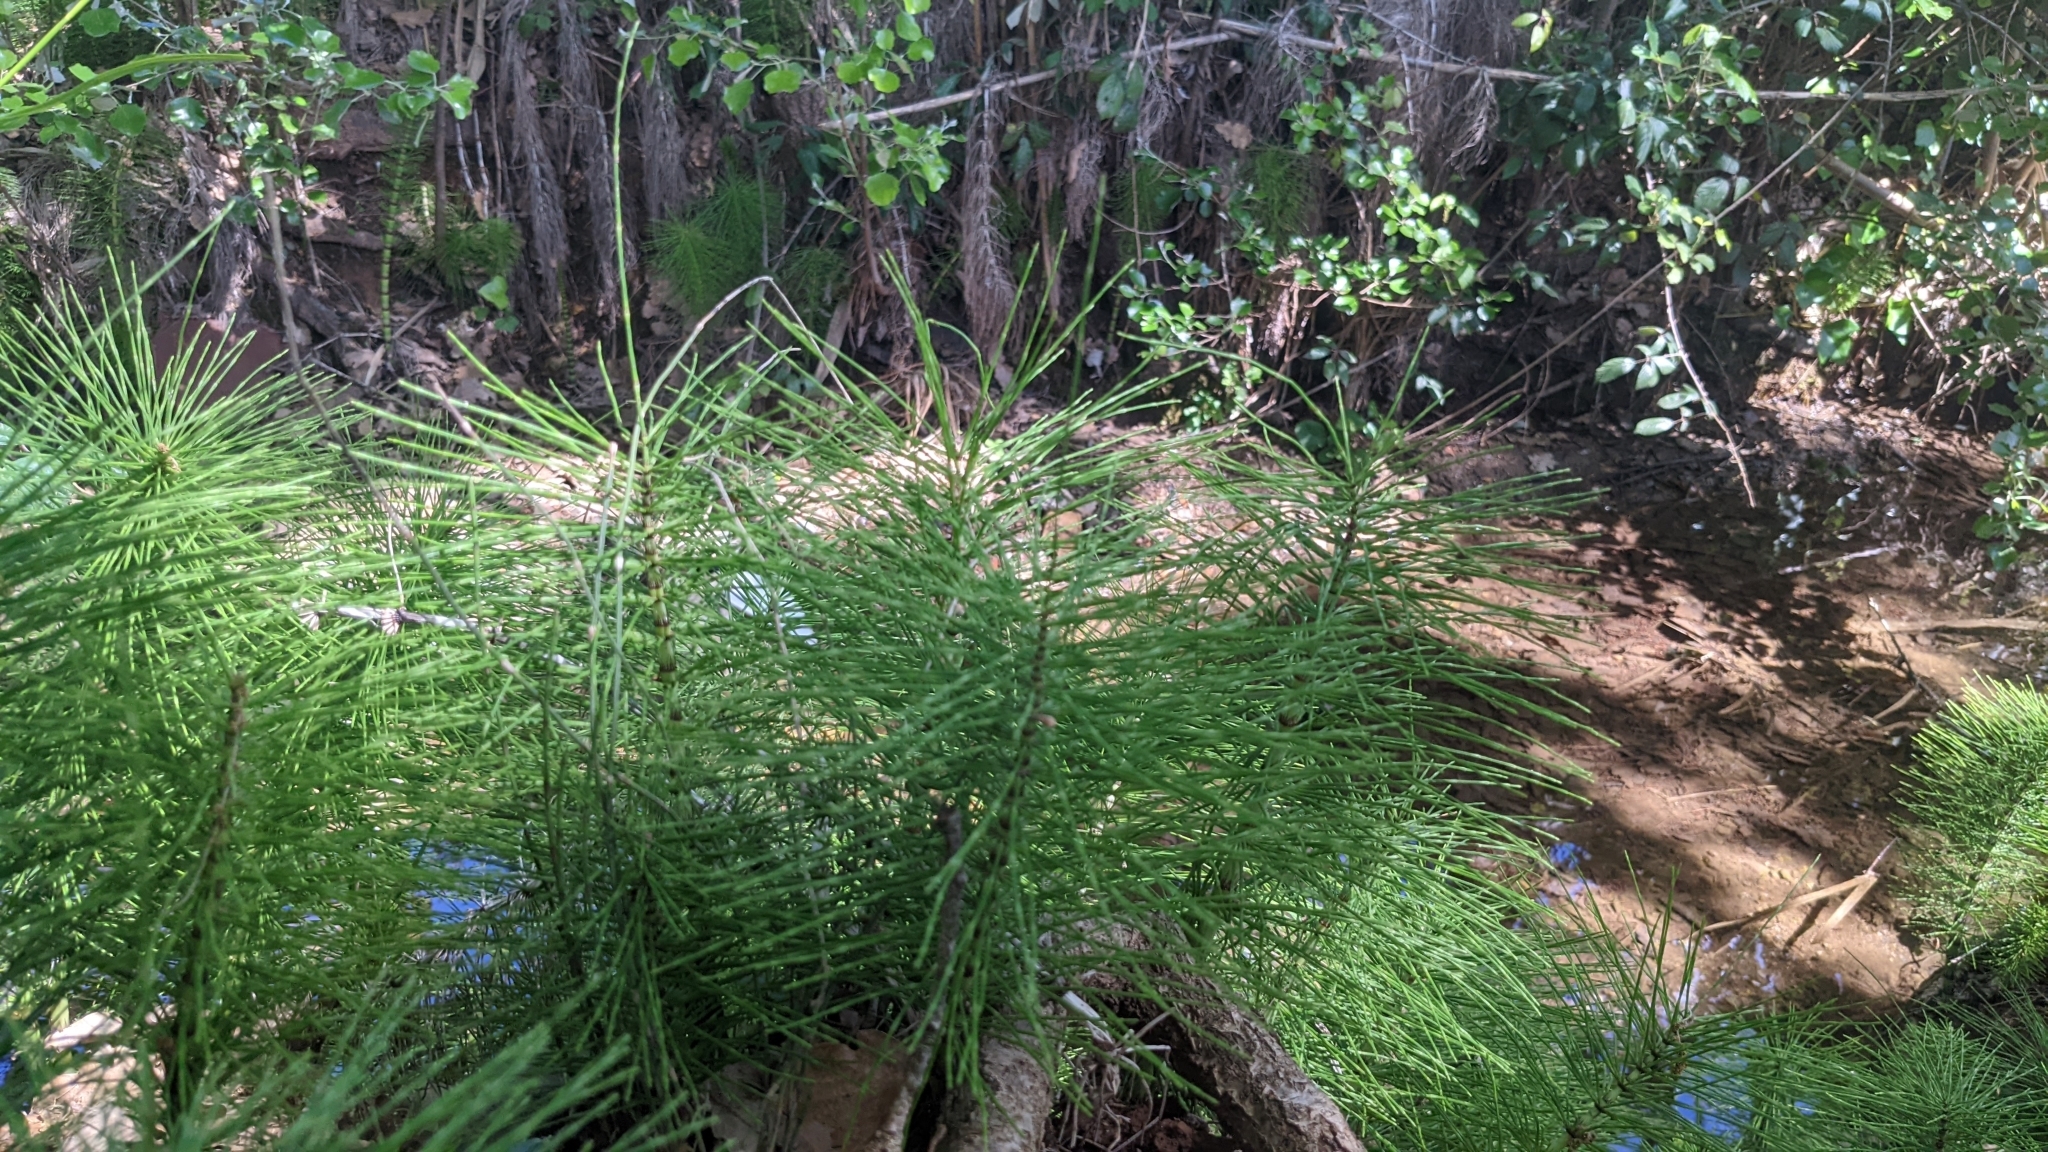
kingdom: Plantae
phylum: Tracheophyta
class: Polypodiopsida
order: Equisetales
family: Equisetaceae
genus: Equisetum
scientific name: Equisetum telmateia
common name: Great horsetail
